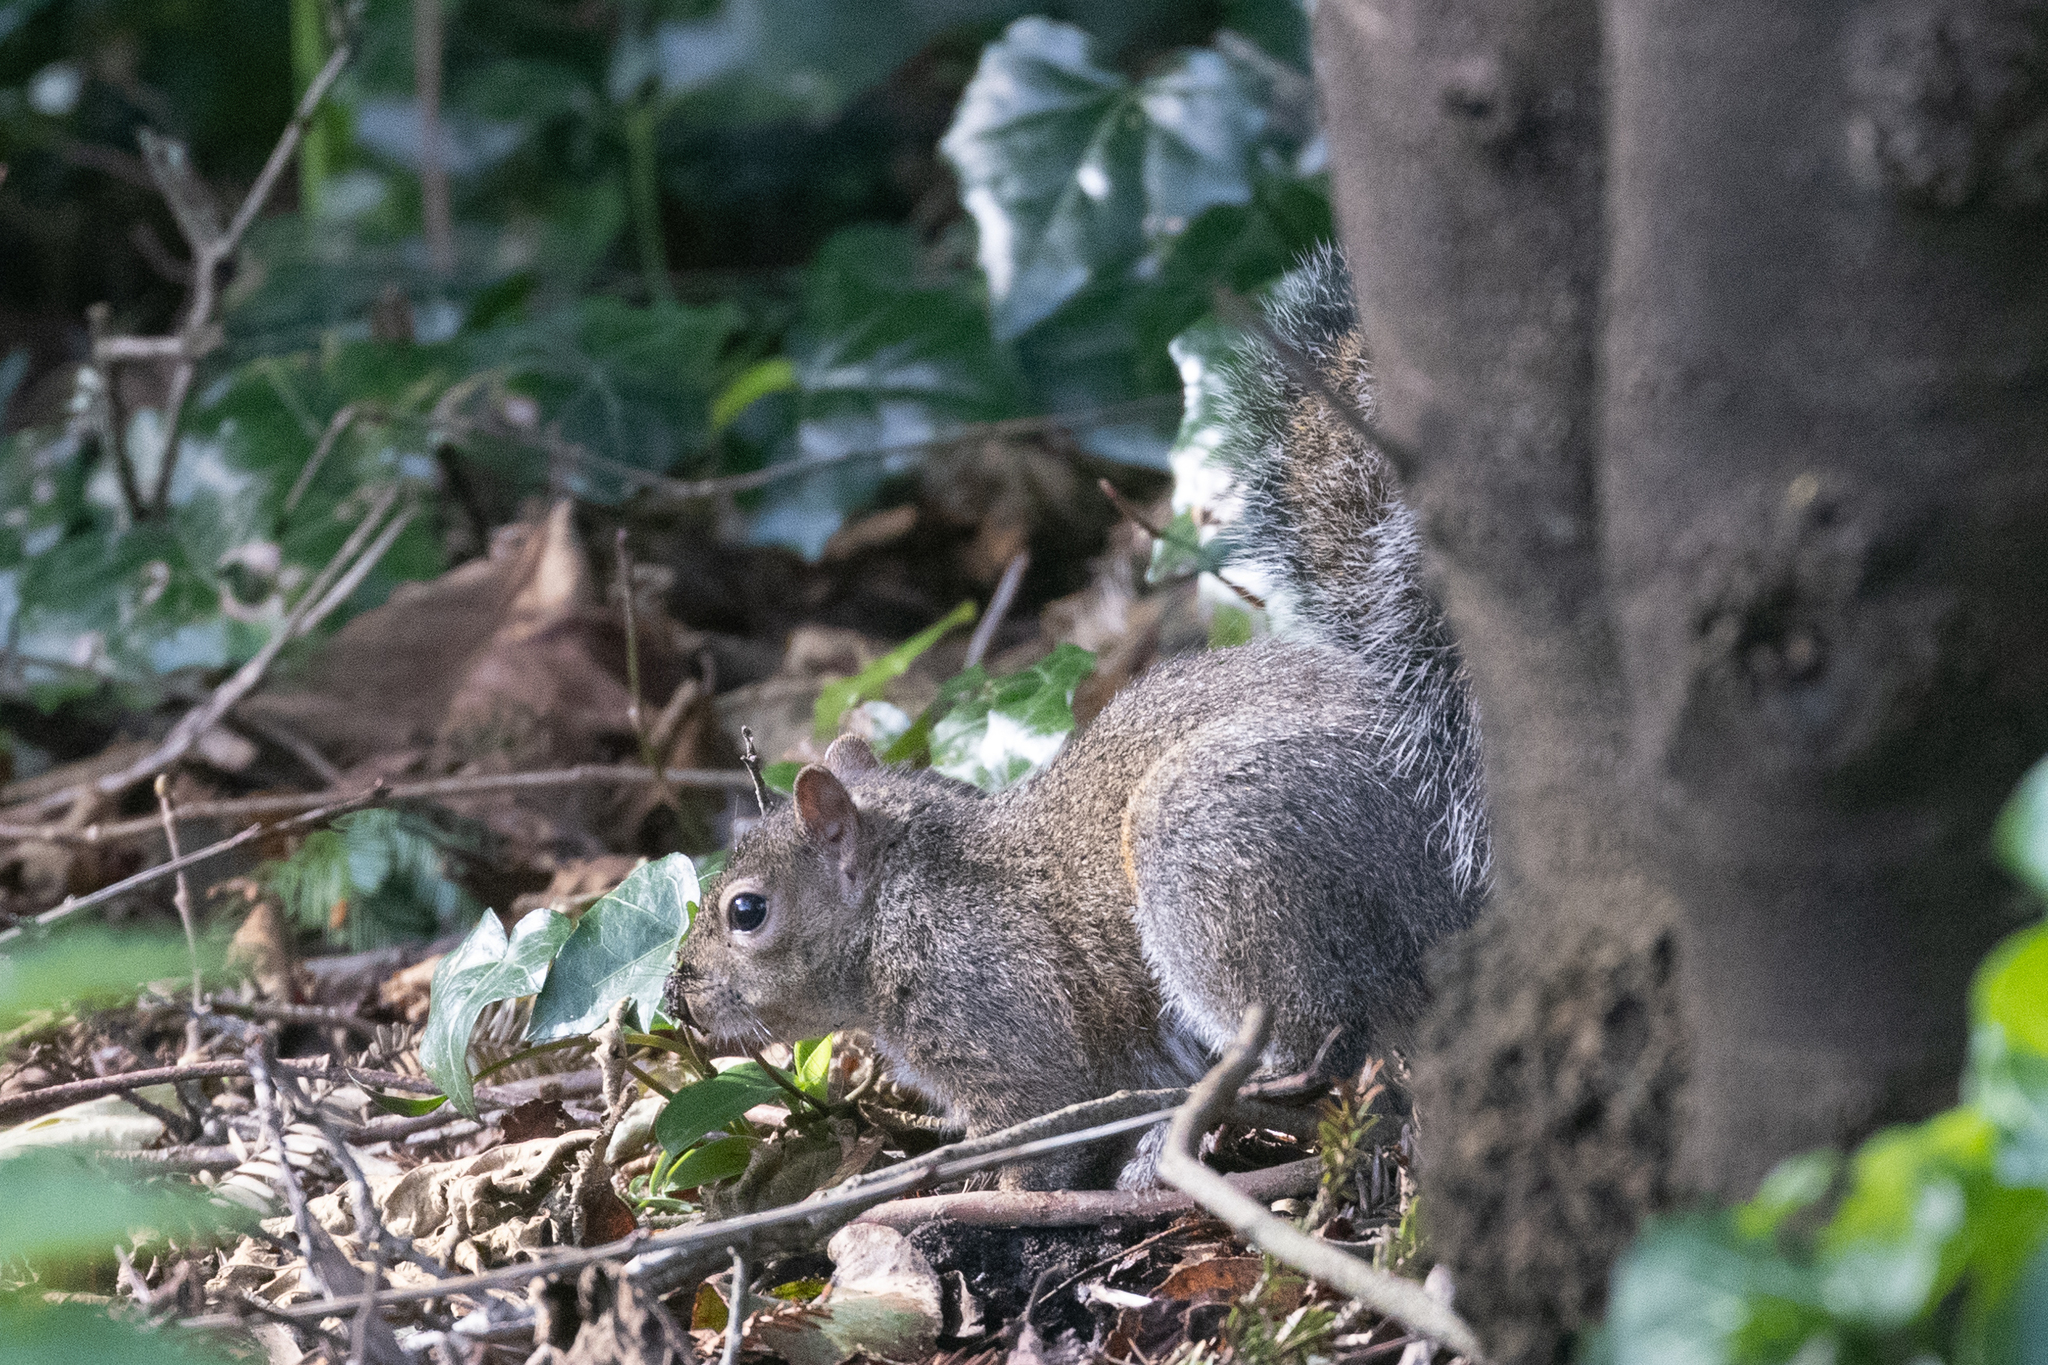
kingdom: Animalia
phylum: Chordata
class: Mammalia
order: Rodentia
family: Sciuridae
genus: Sciurus
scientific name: Sciurus carolinensis
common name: Eastern gray squirrel
